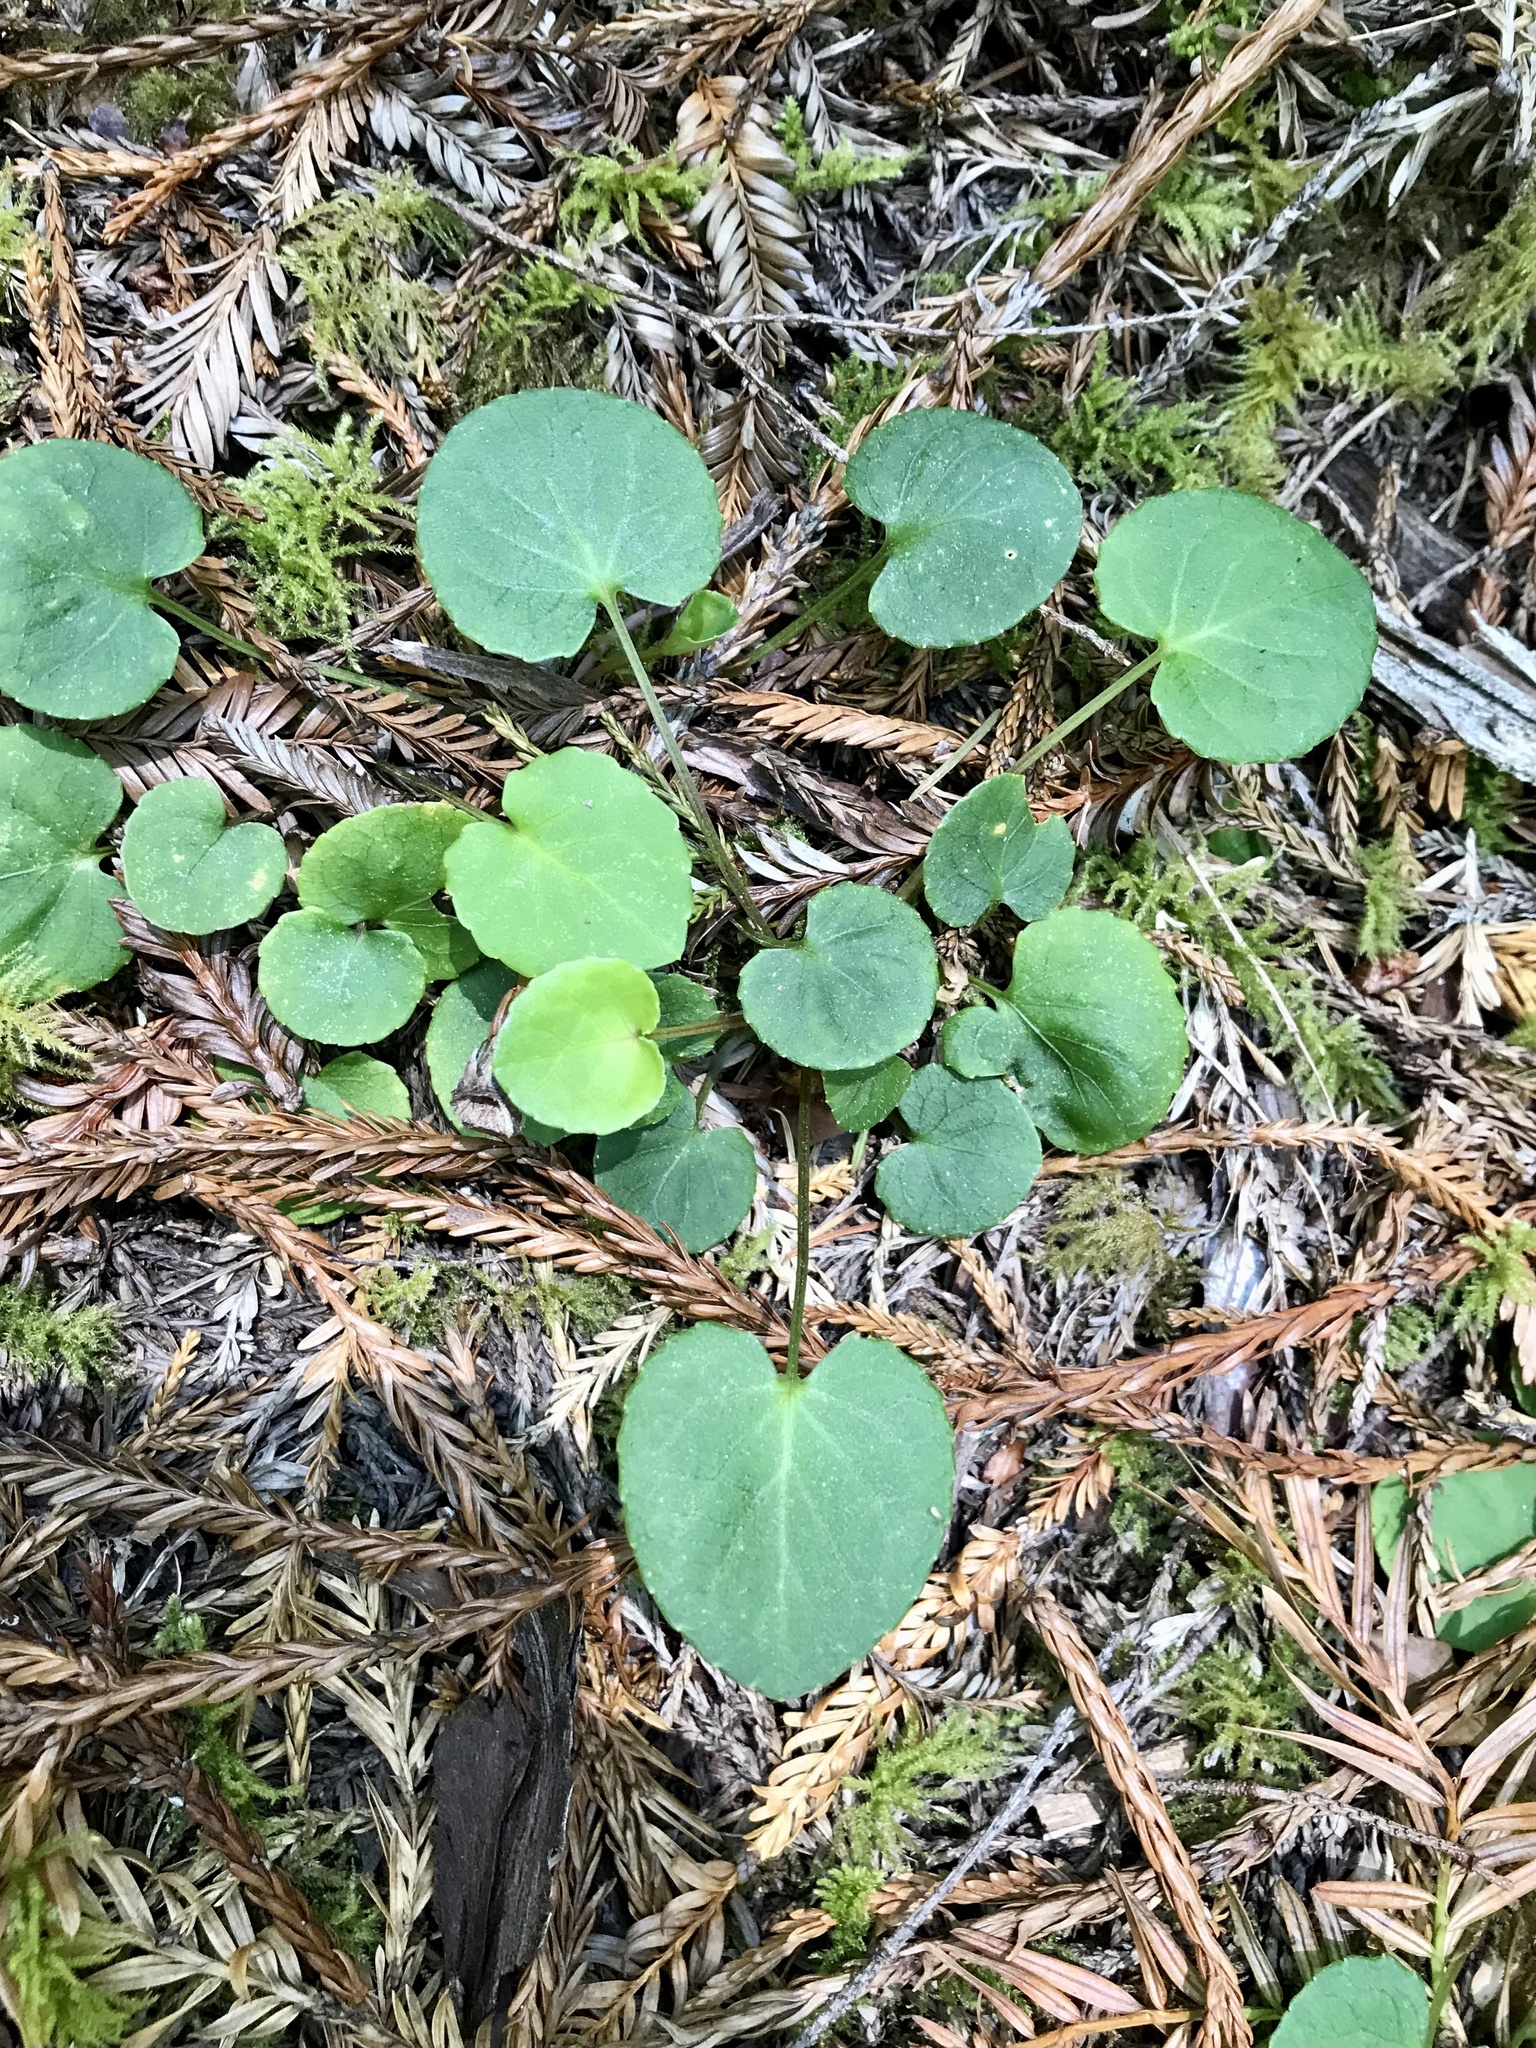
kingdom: Plantae
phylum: Tracheophyta
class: Magnoliopsida
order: Malpighiales
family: Violaceae
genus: Viola
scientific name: Viola sempervirens
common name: Evergreen violet
